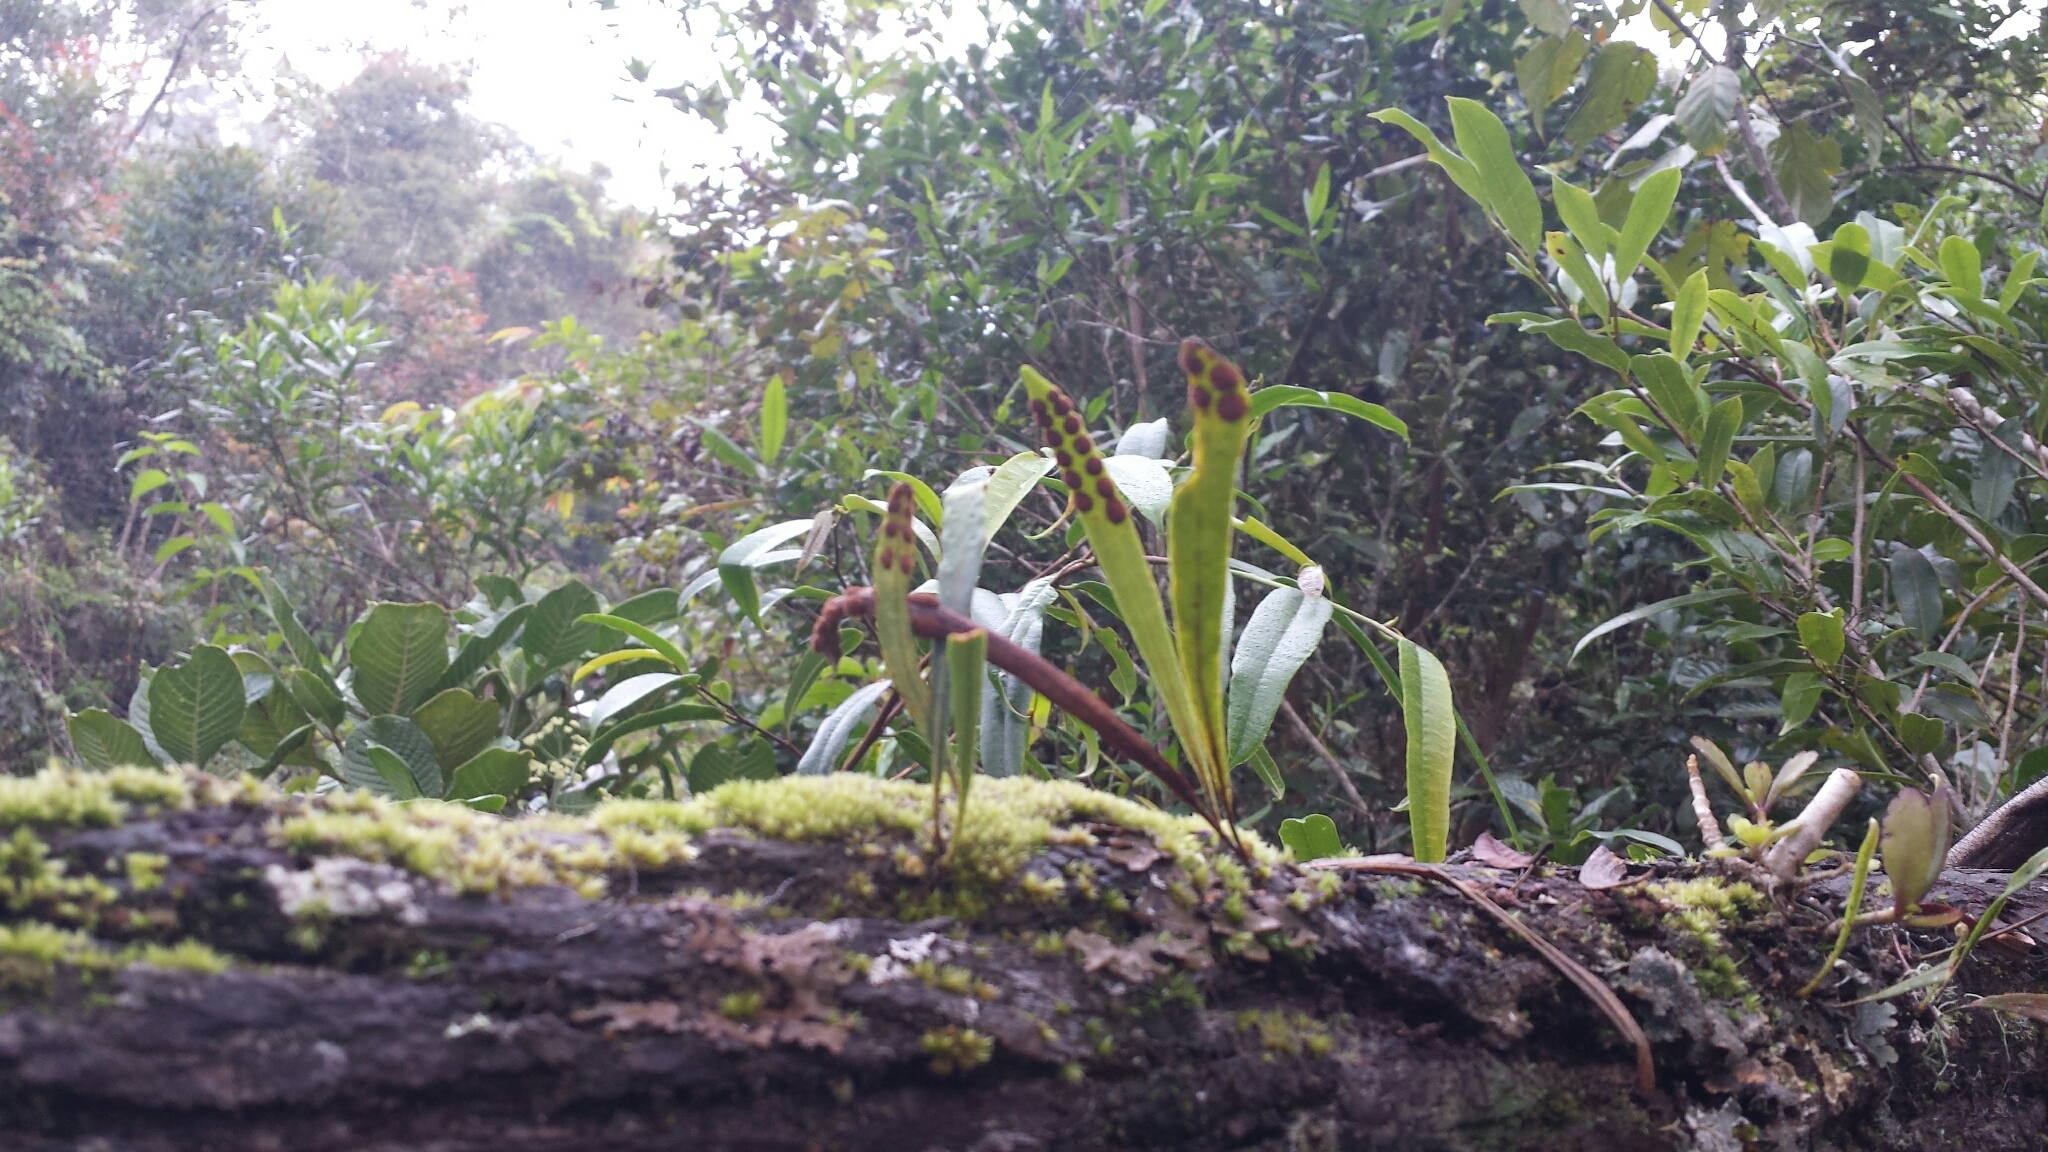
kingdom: Plantae
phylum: Tracheophyta
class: Polypodiopsida
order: Polypodiales
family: Polypodiaceae
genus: Pleopeltis
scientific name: Pleopeltis macrocarpa
